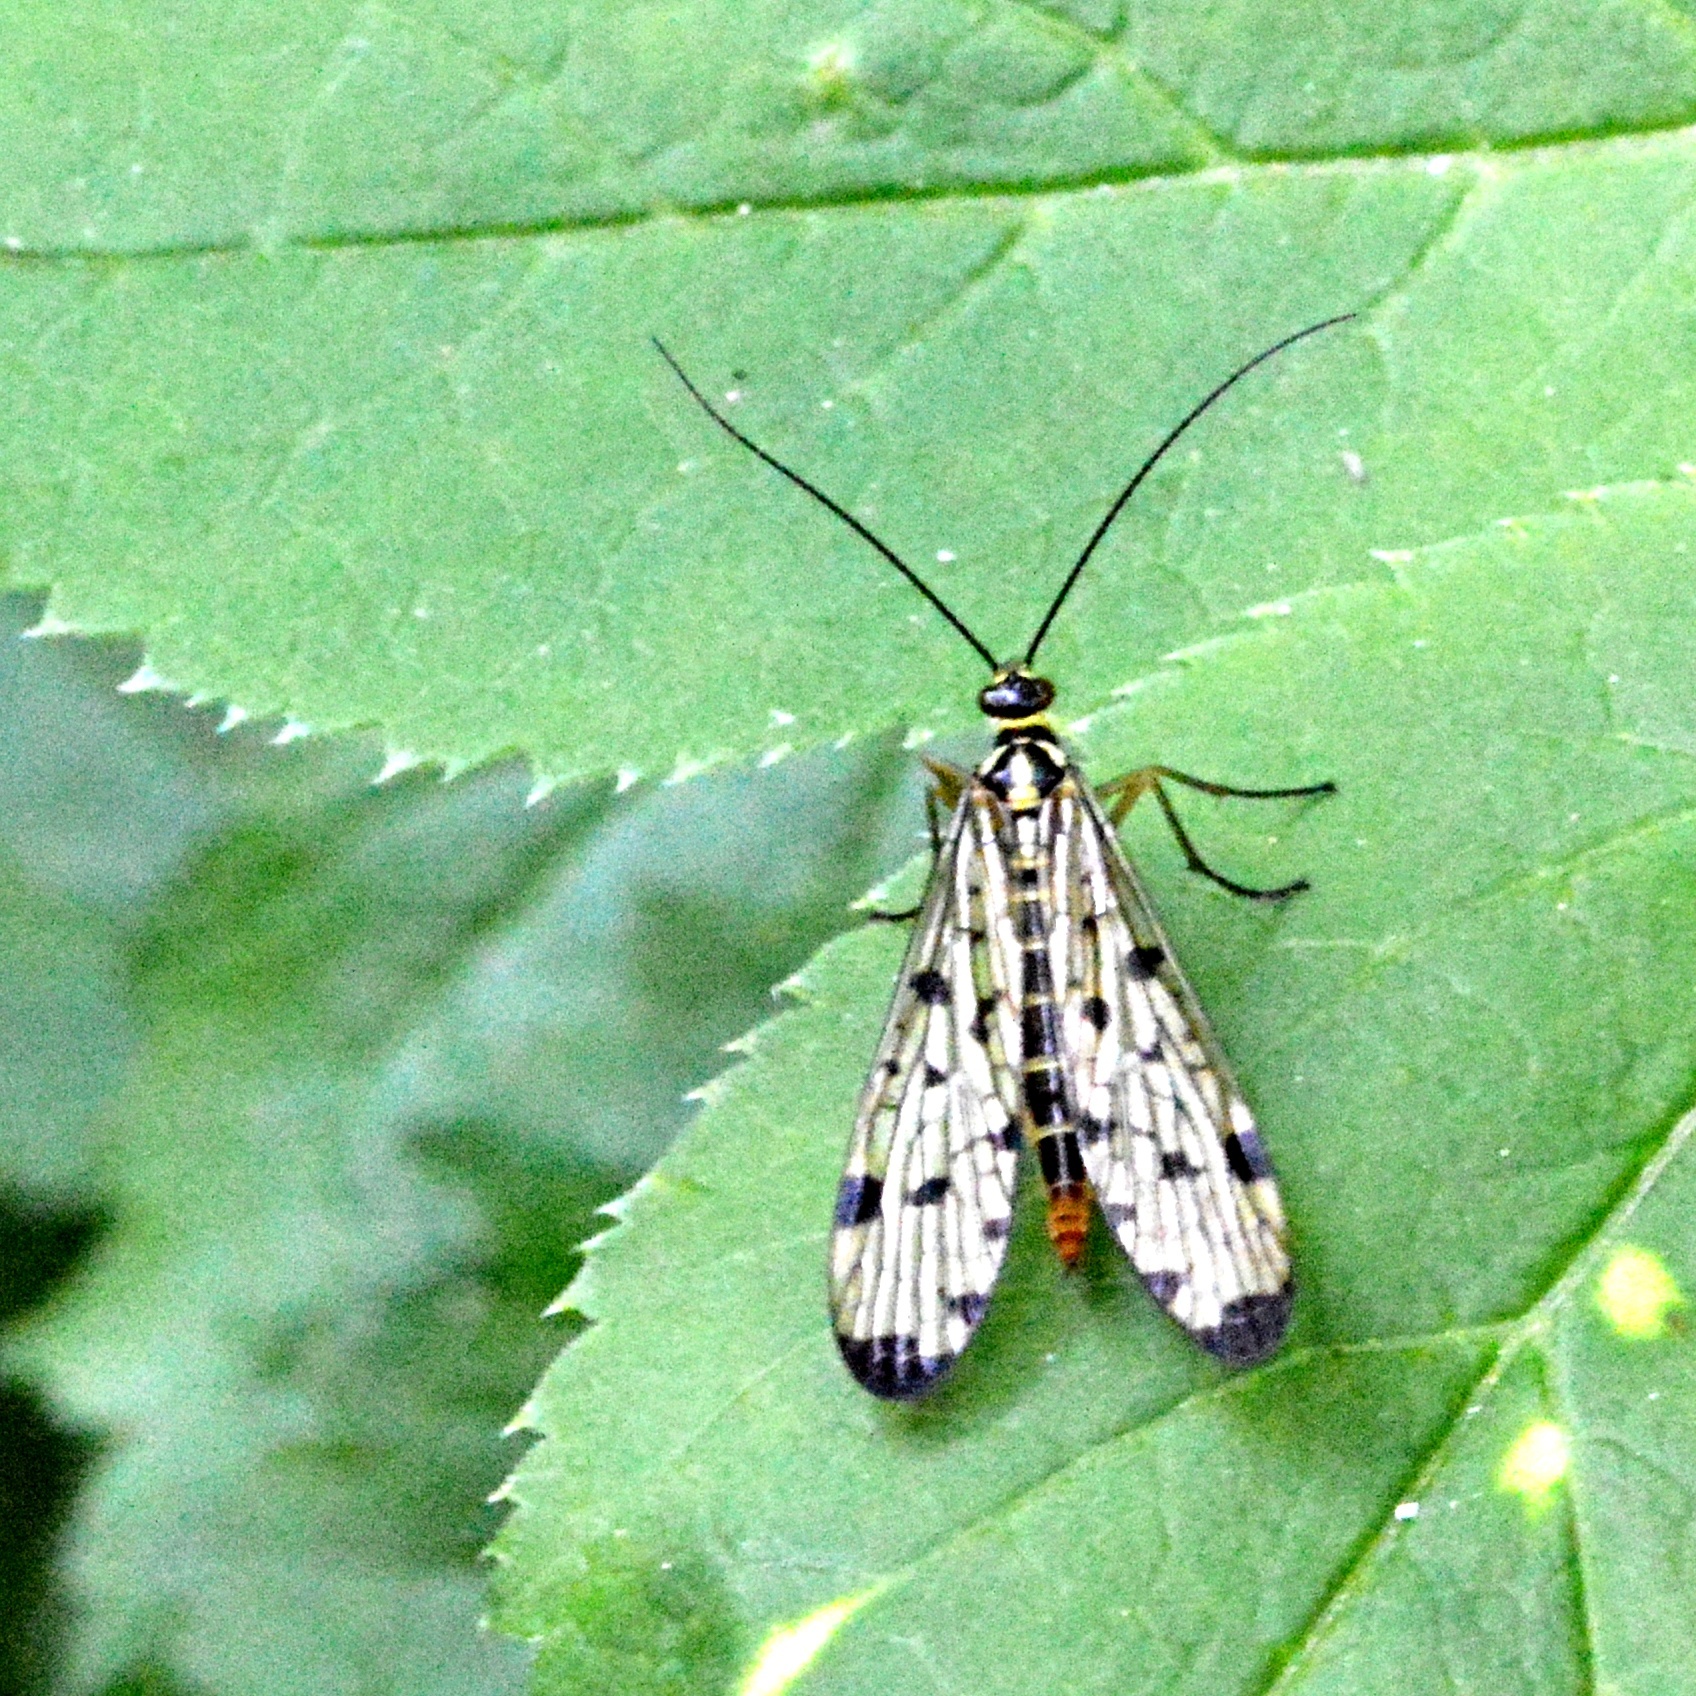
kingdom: Animalia
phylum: Arthropoda
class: Insecta
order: Mecoptera
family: Panorpidae
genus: Panorpa
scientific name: Panorpa germanica
